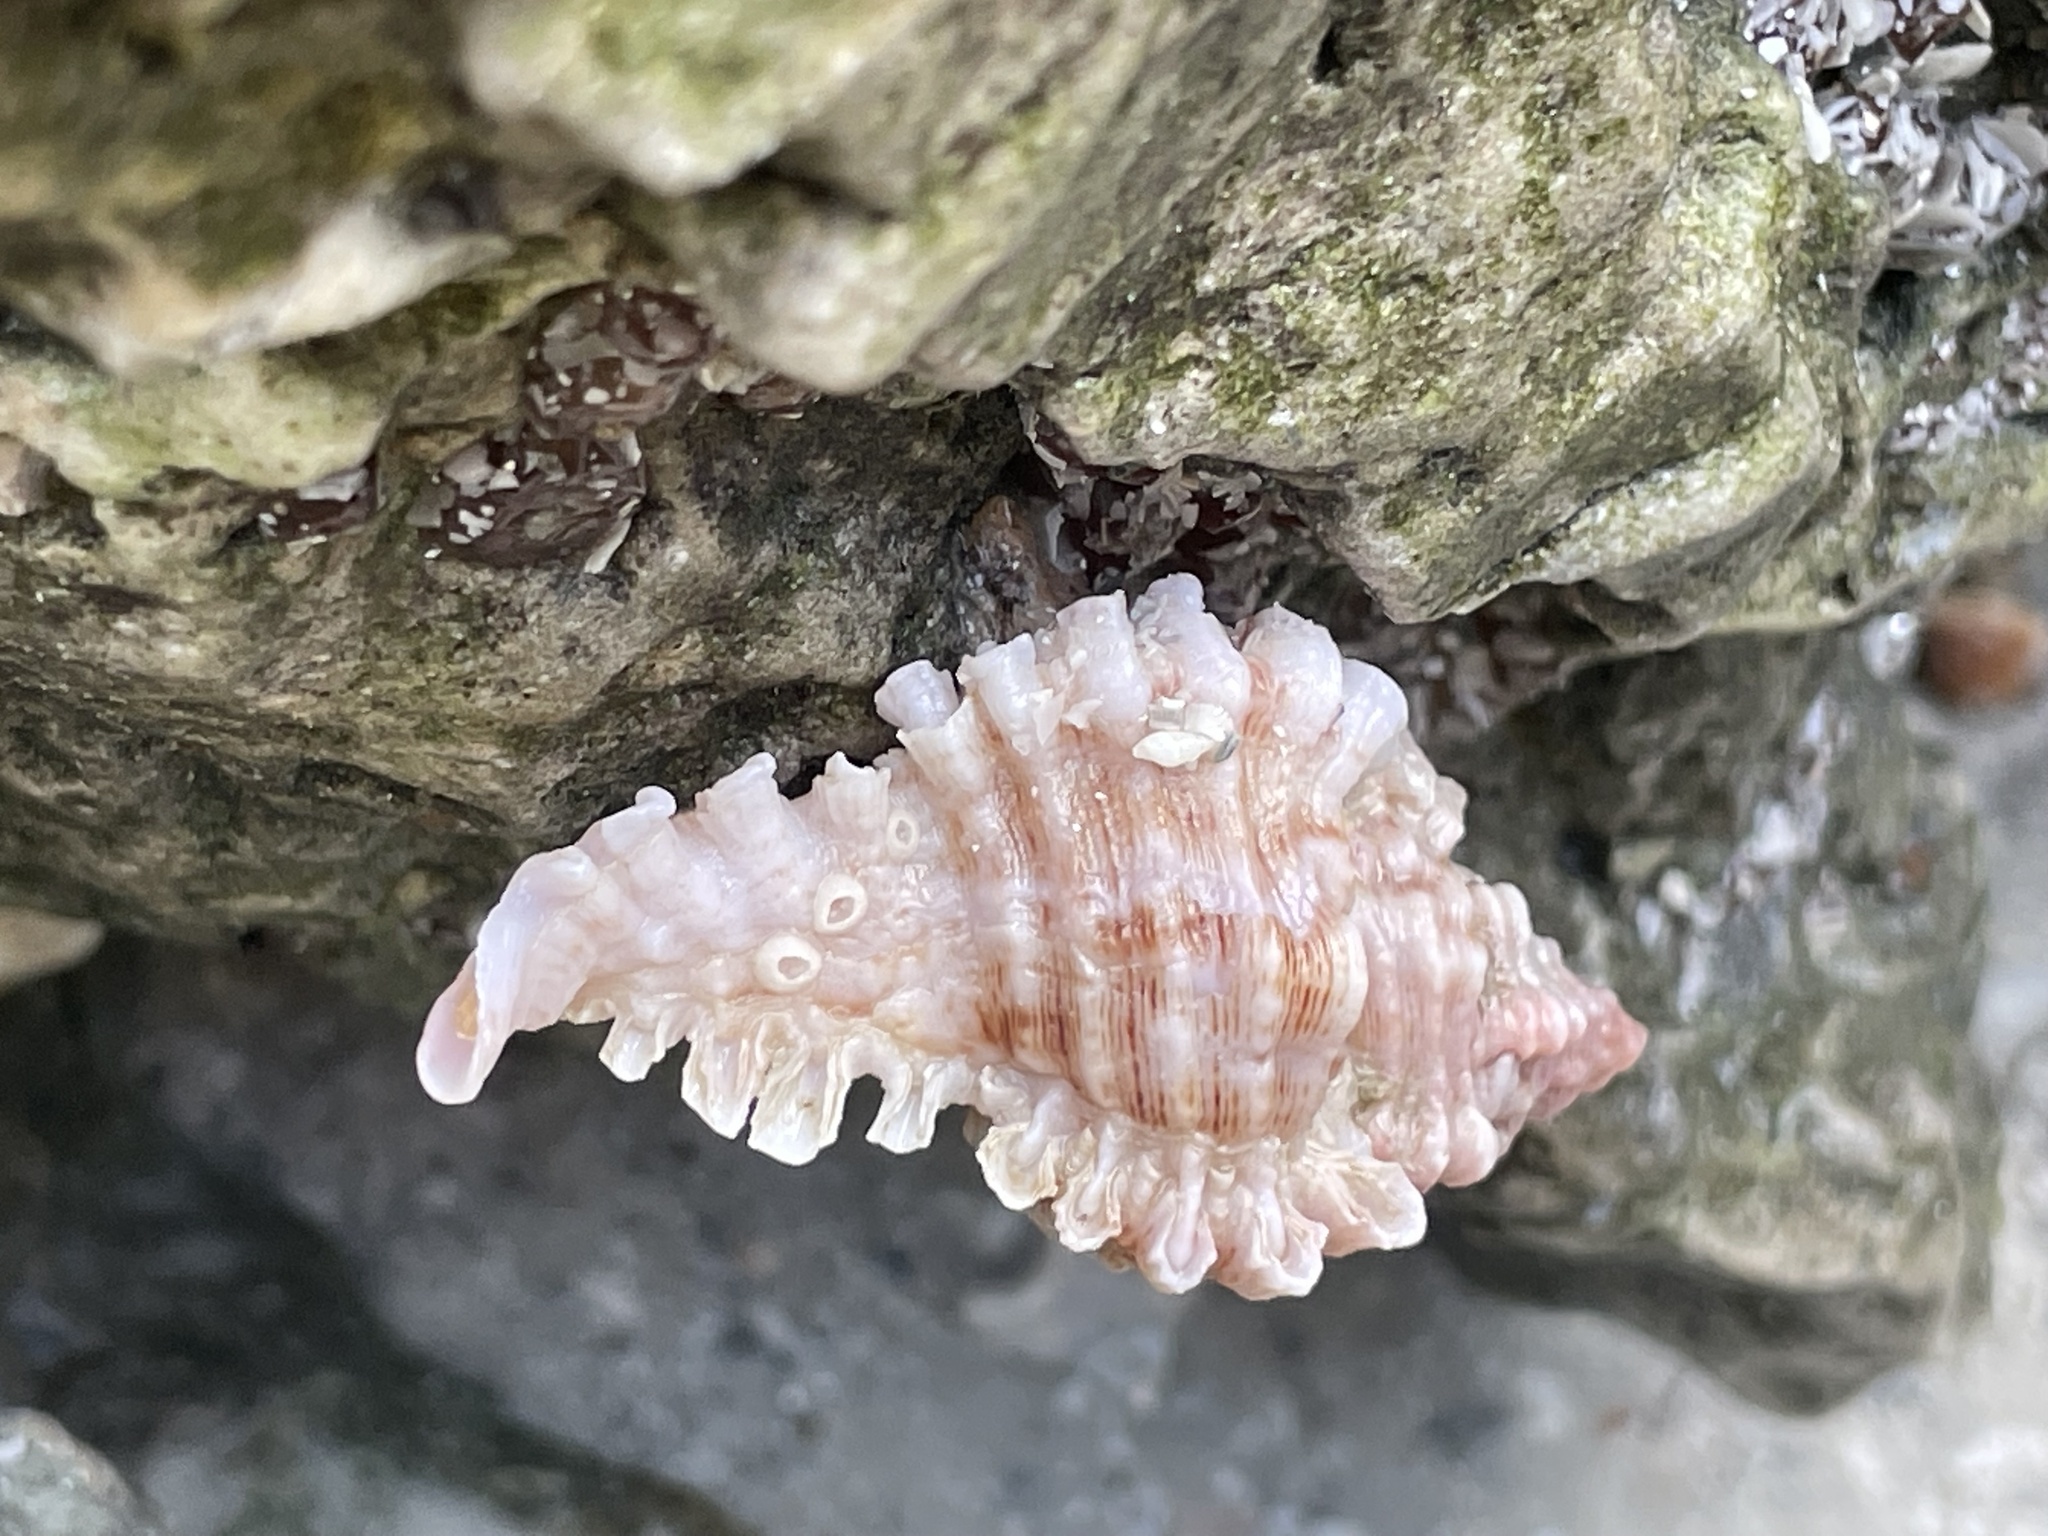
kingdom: Animalia
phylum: Mollusca
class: Gastropoda
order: Neogastropoda
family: Muricidae
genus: Chicoreus
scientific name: Chicoreus florifer
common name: Flowery lace murex
